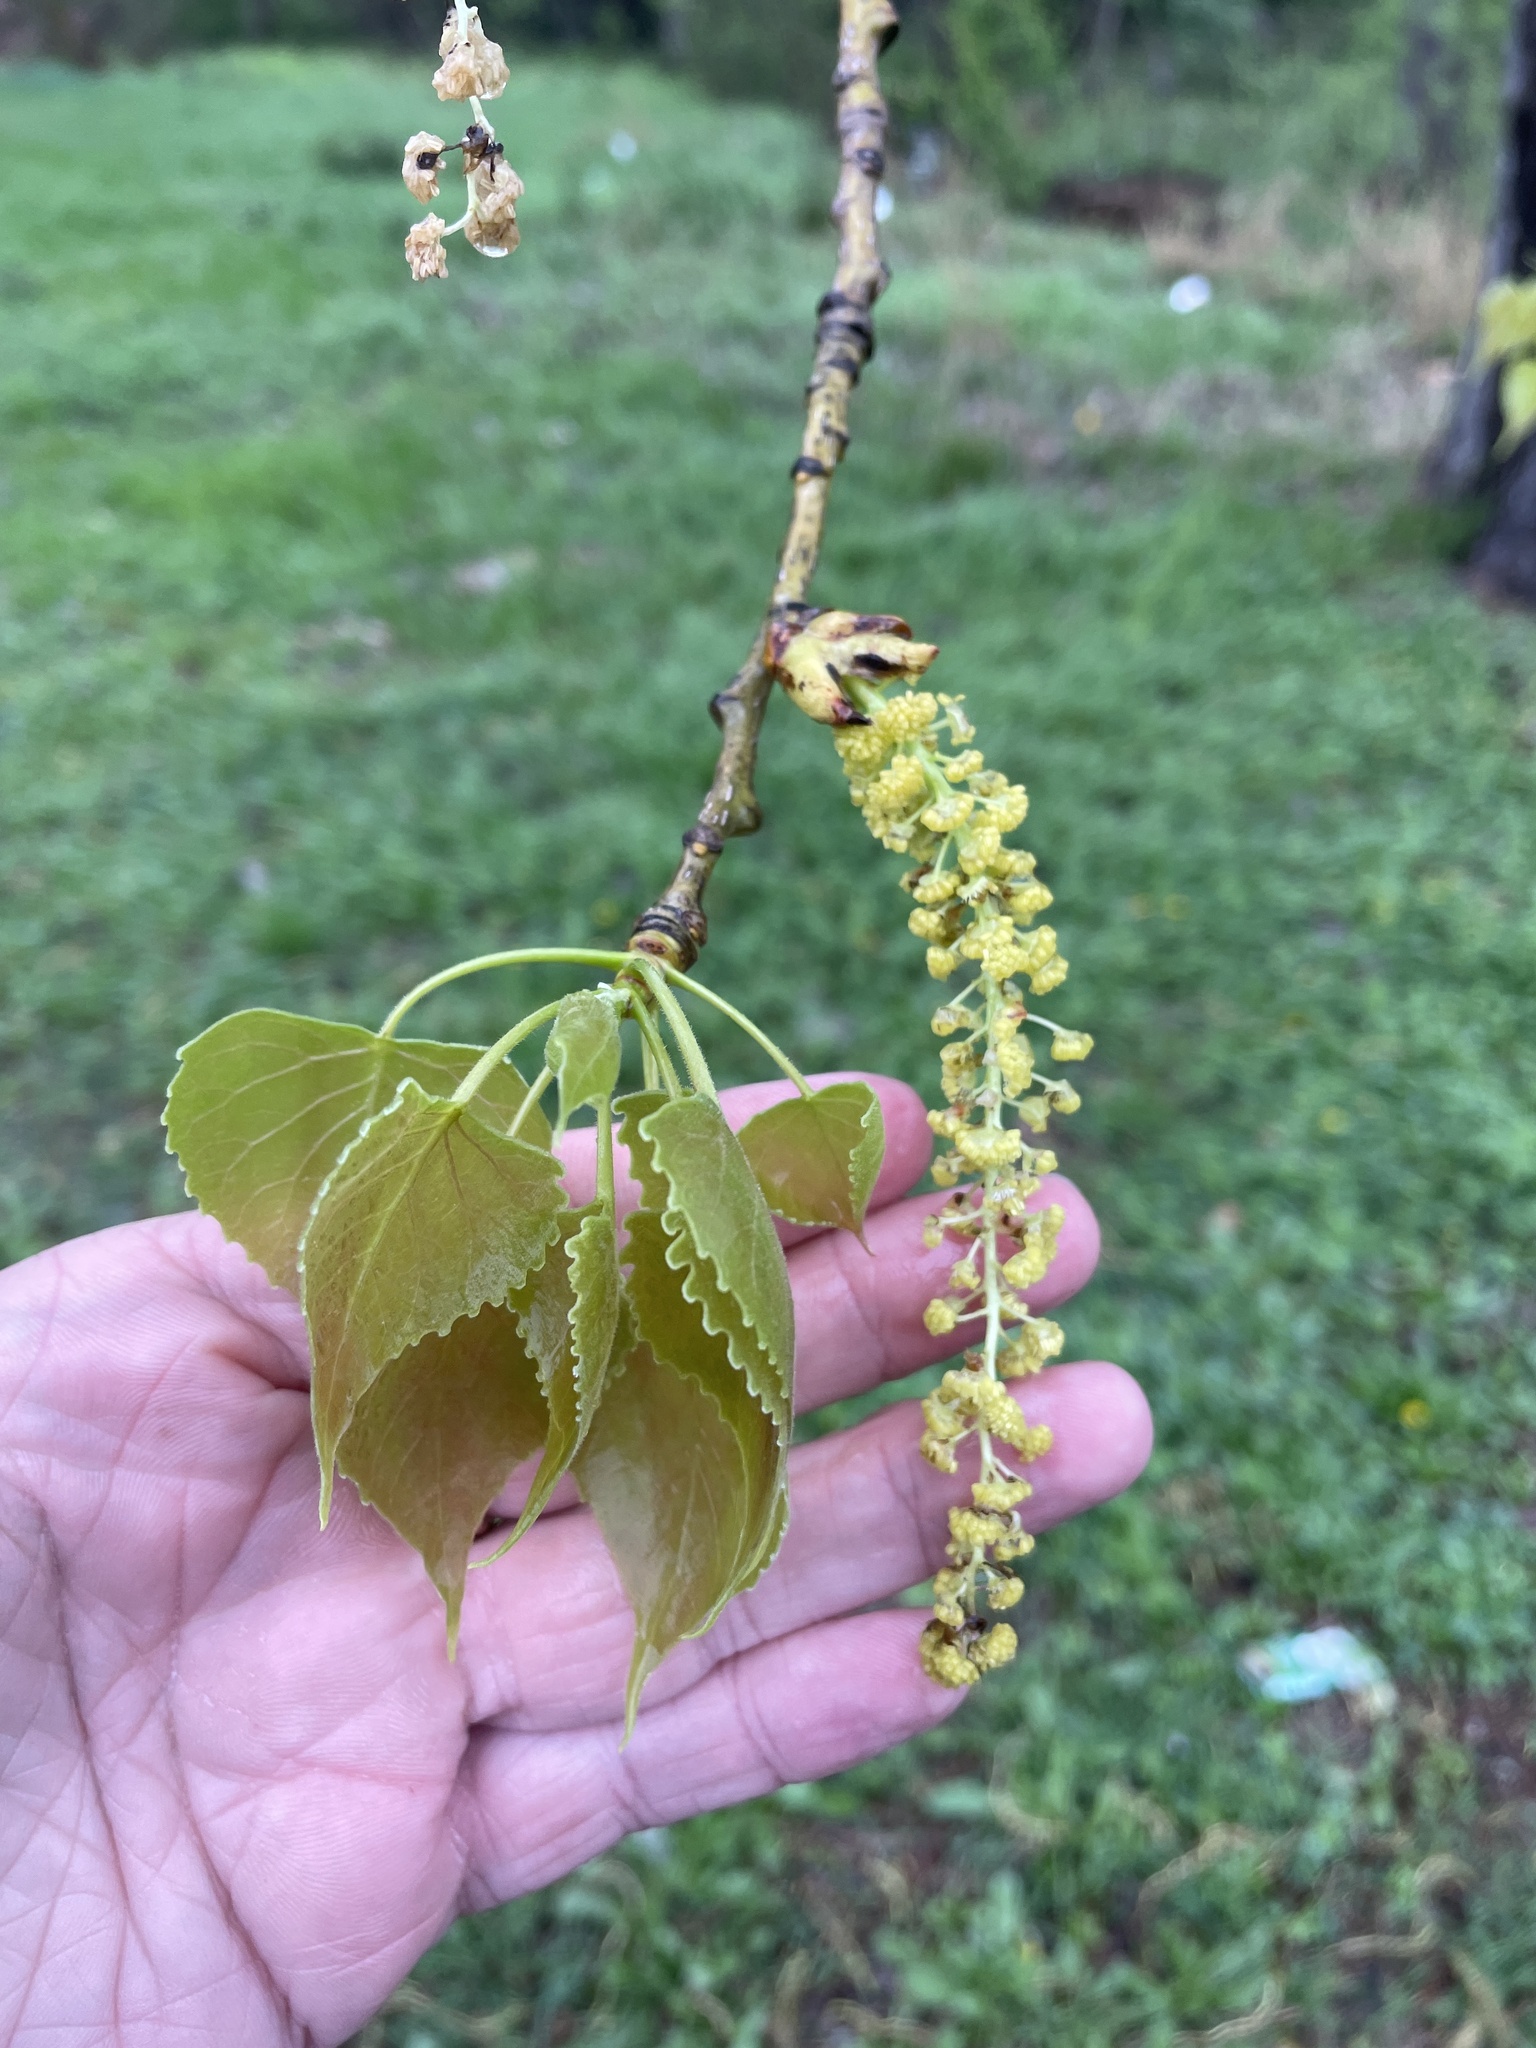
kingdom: Plantae
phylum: Tracheophyta
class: Magnoliopsida
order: Malpighiales
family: Salicaceae
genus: Populus
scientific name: Populus deltoides
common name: Eastern cottonwood
